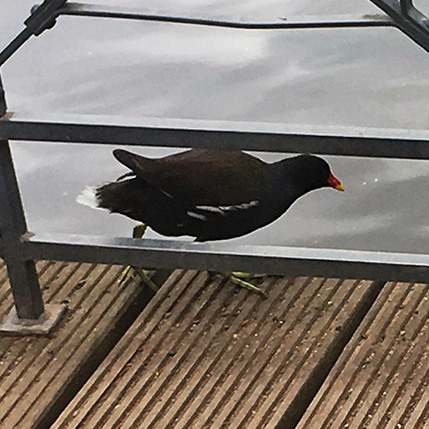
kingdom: Animalia
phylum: Chordata
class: Aves
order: Gruiformes
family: Rallidae
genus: Gallinula
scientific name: Gallinula chloropus
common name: Common moorhen
